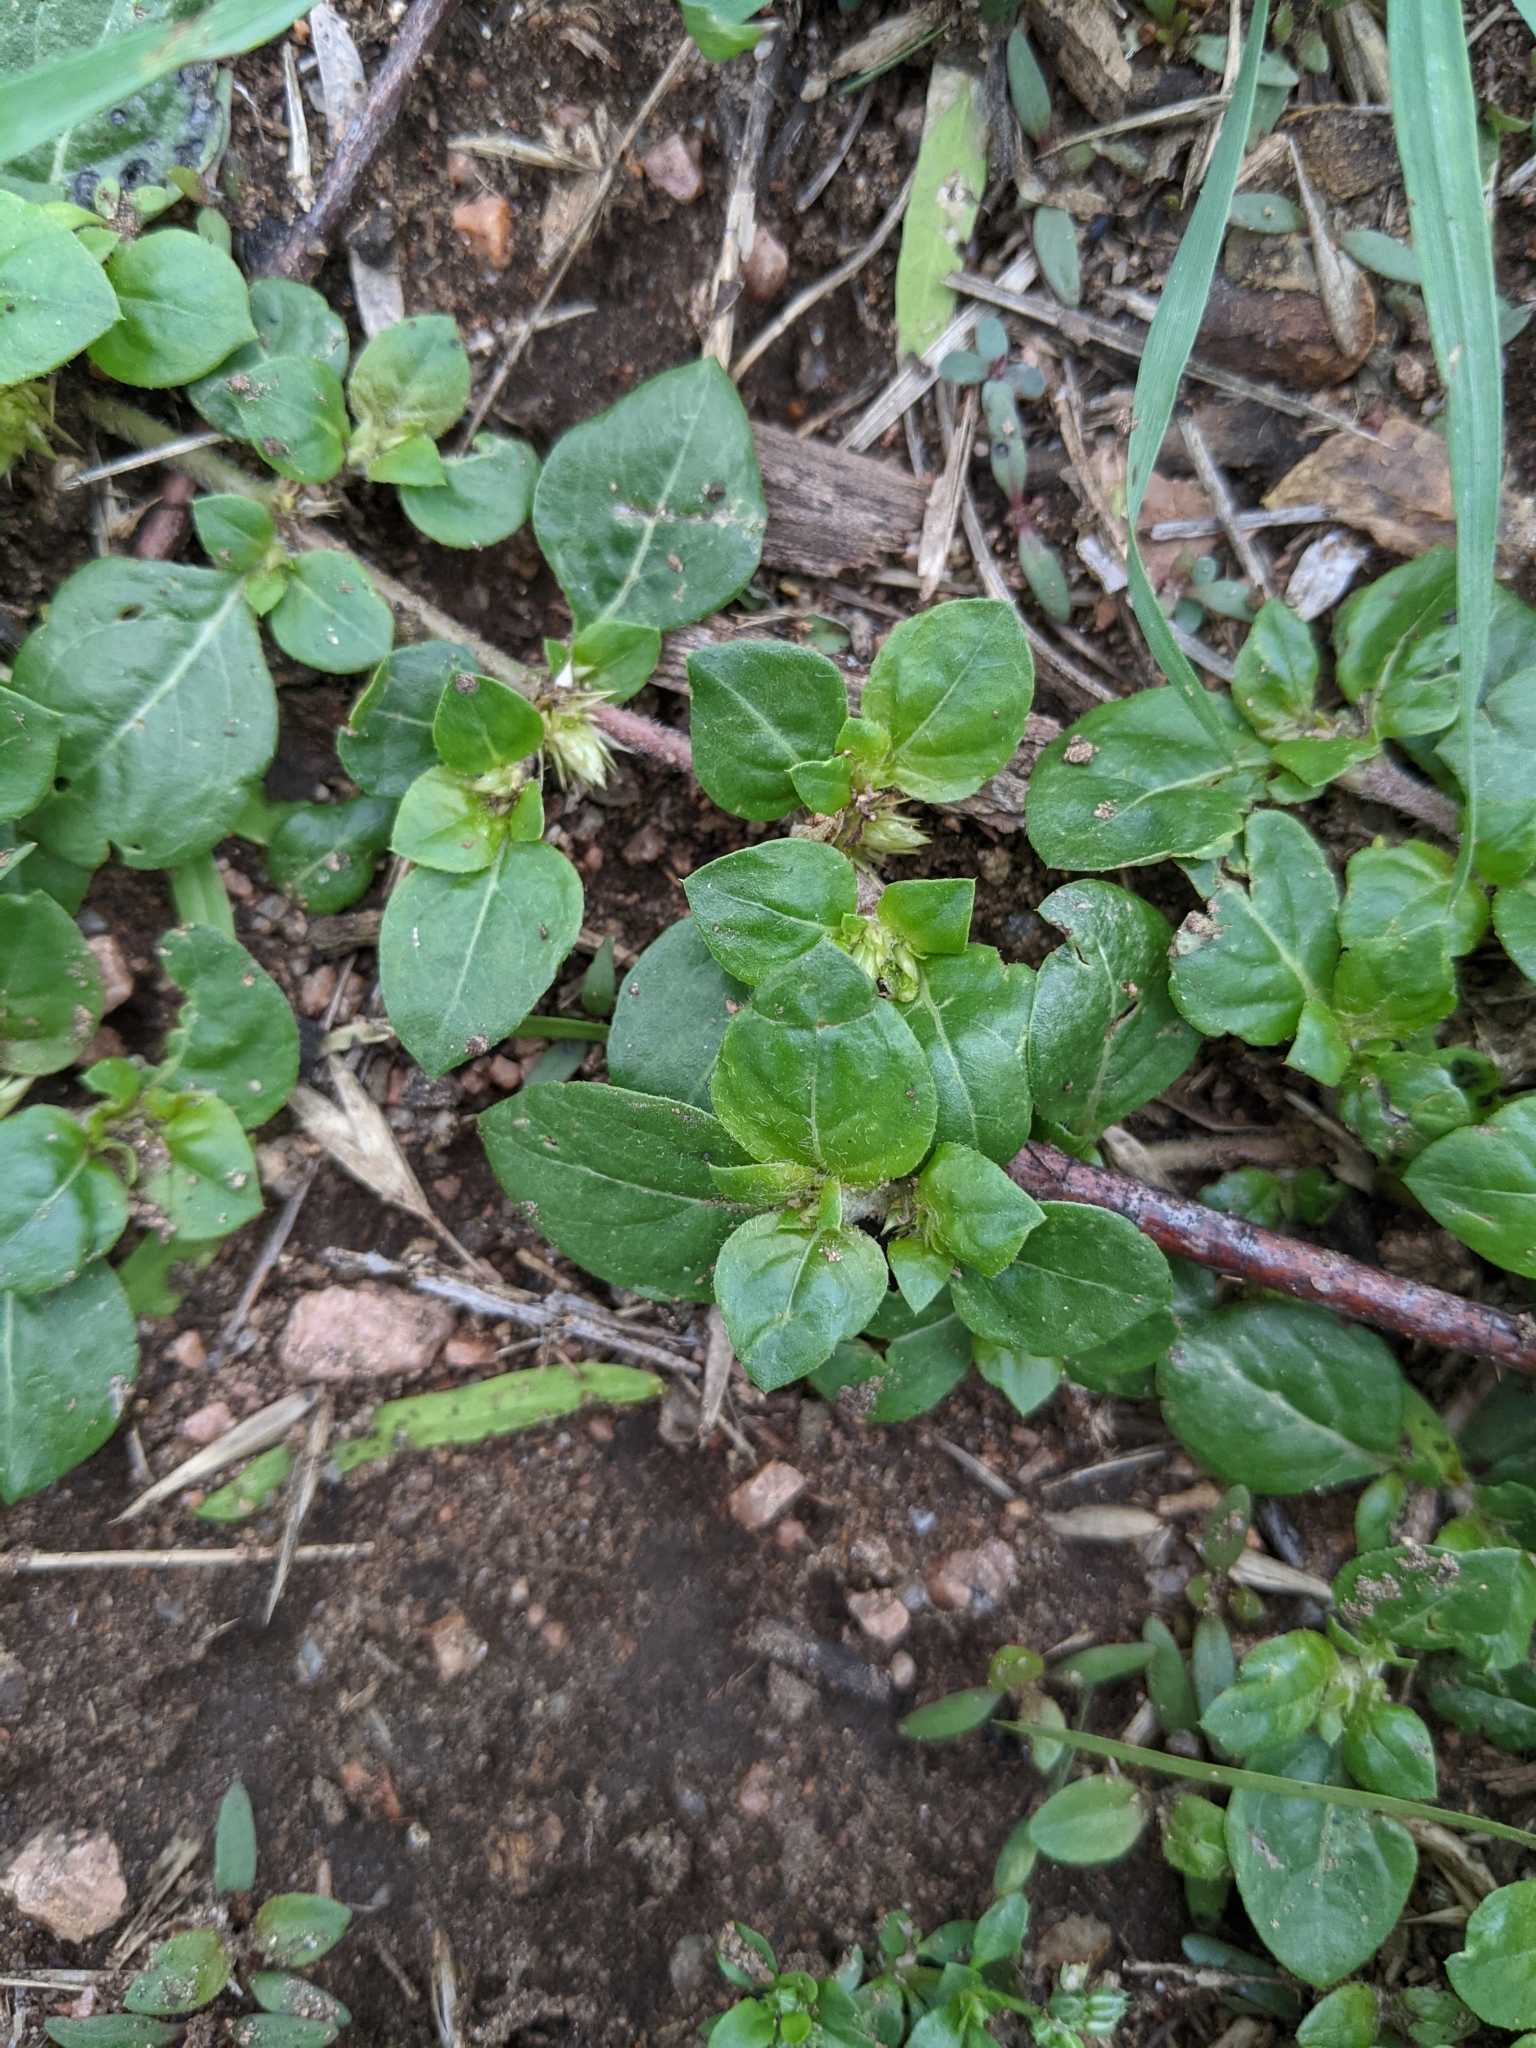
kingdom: Plantae
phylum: Tracheophyta
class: Magnoliopsida
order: Caryophyllales
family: Amaranthaceae
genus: Alternanthera
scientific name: Alternanthera pungens
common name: Khakiweed
